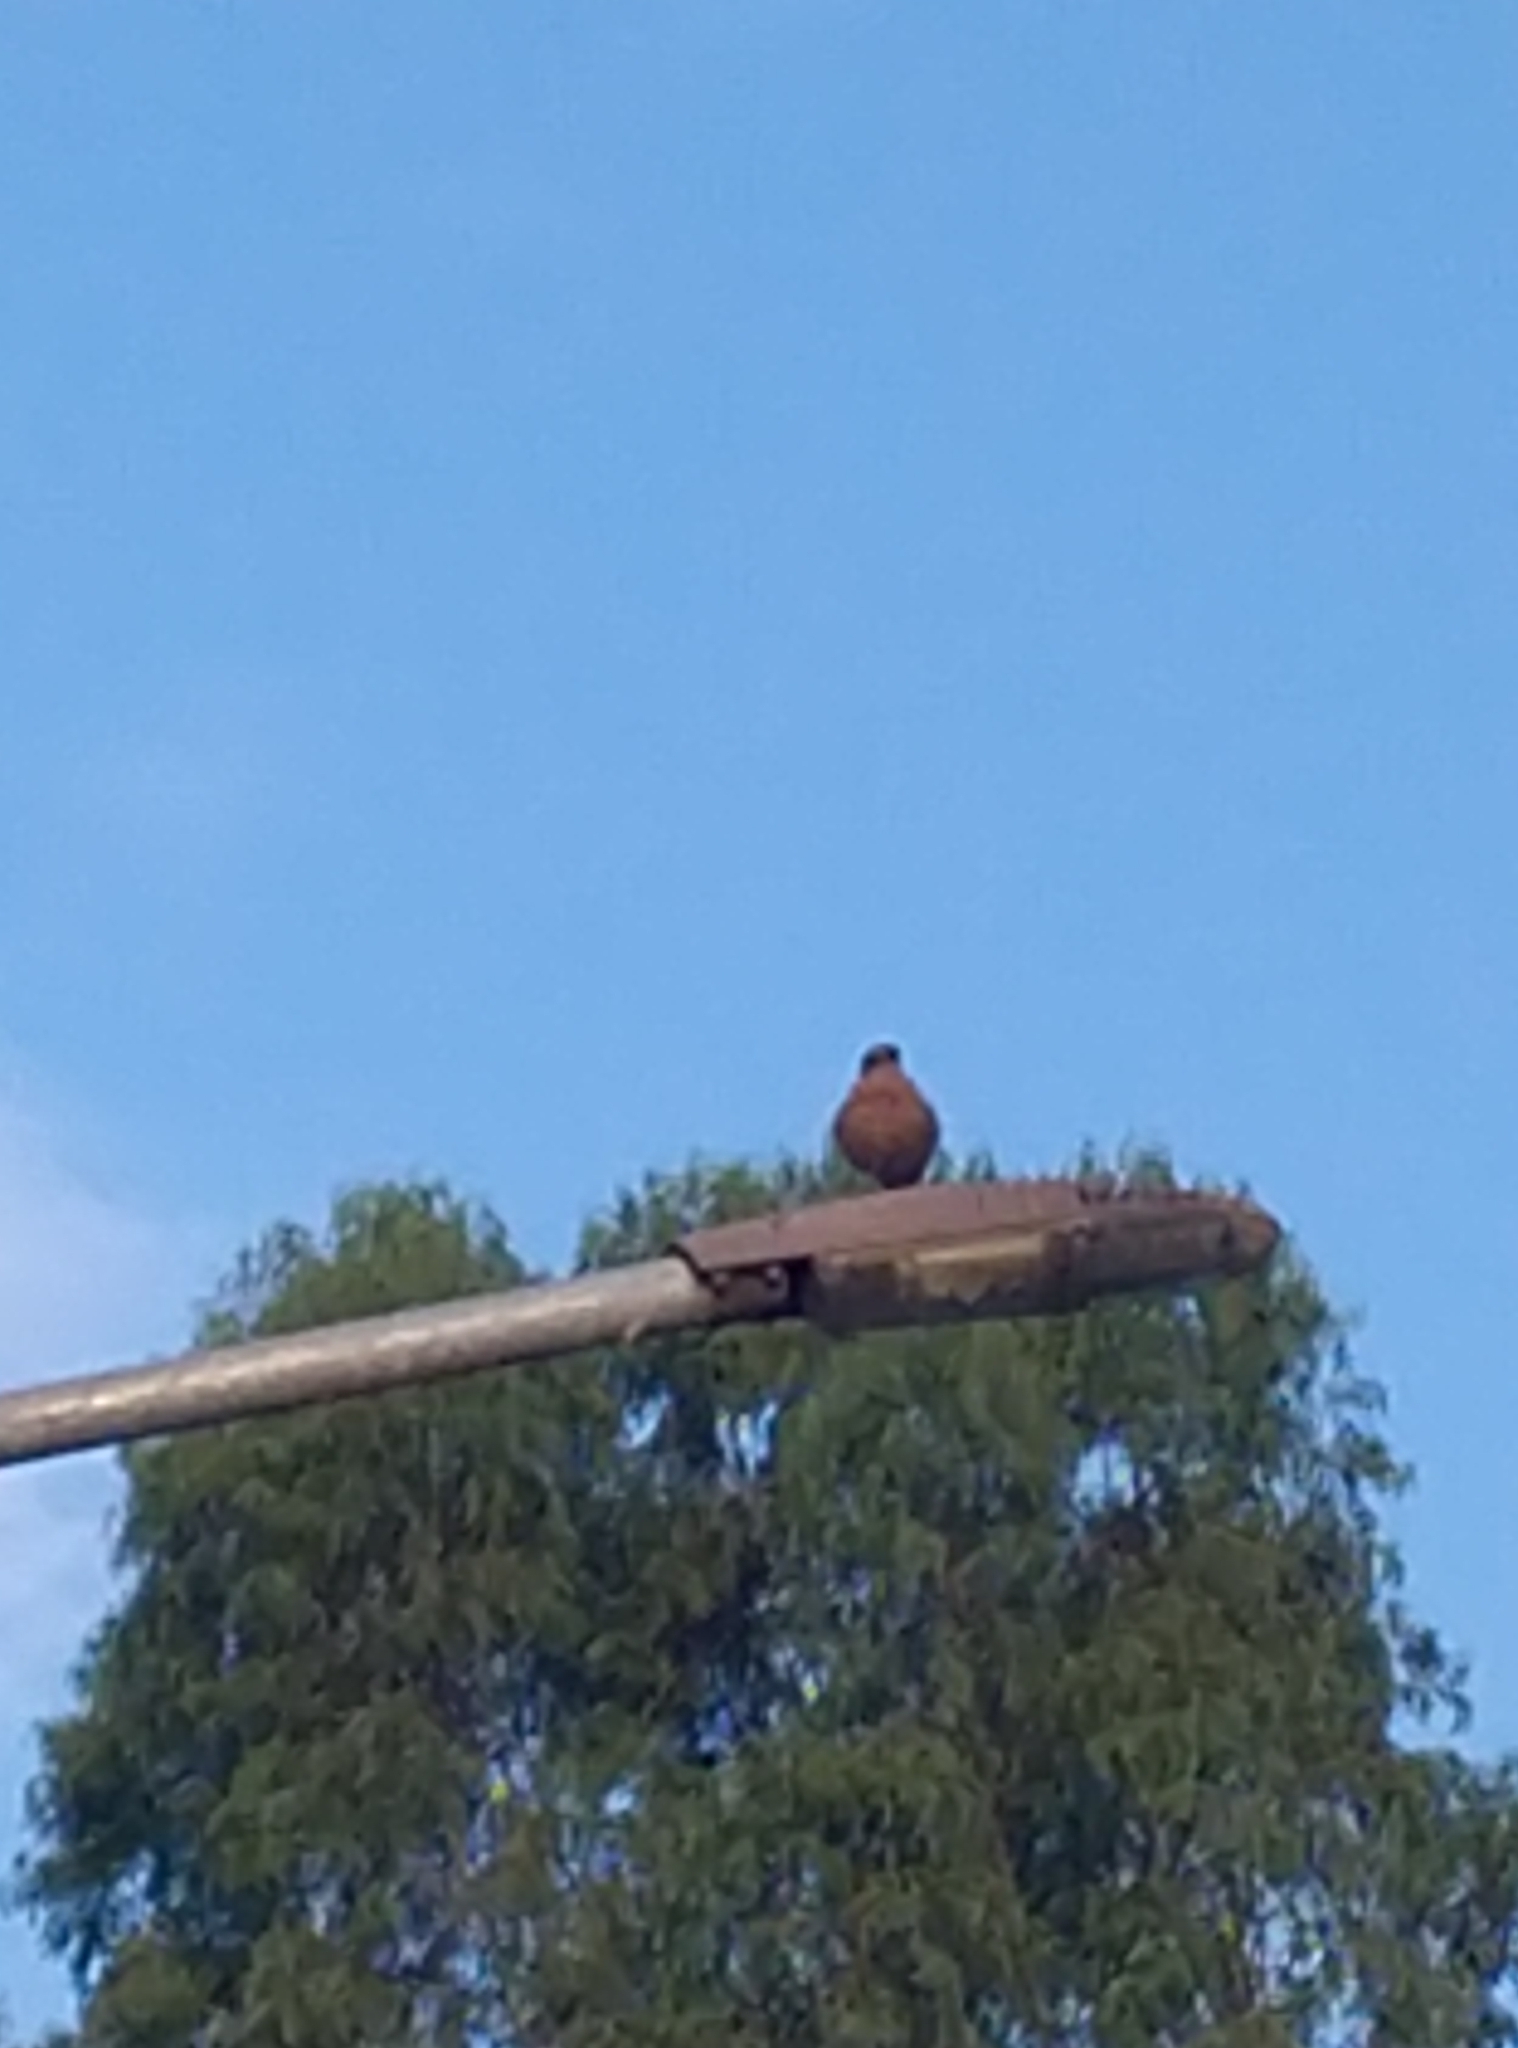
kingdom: Animalia
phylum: Chordata
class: Aves
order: Passeriformes
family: Muscicapidae
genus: Oenanthe
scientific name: Oenanthe fusca
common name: Brown rock chat
